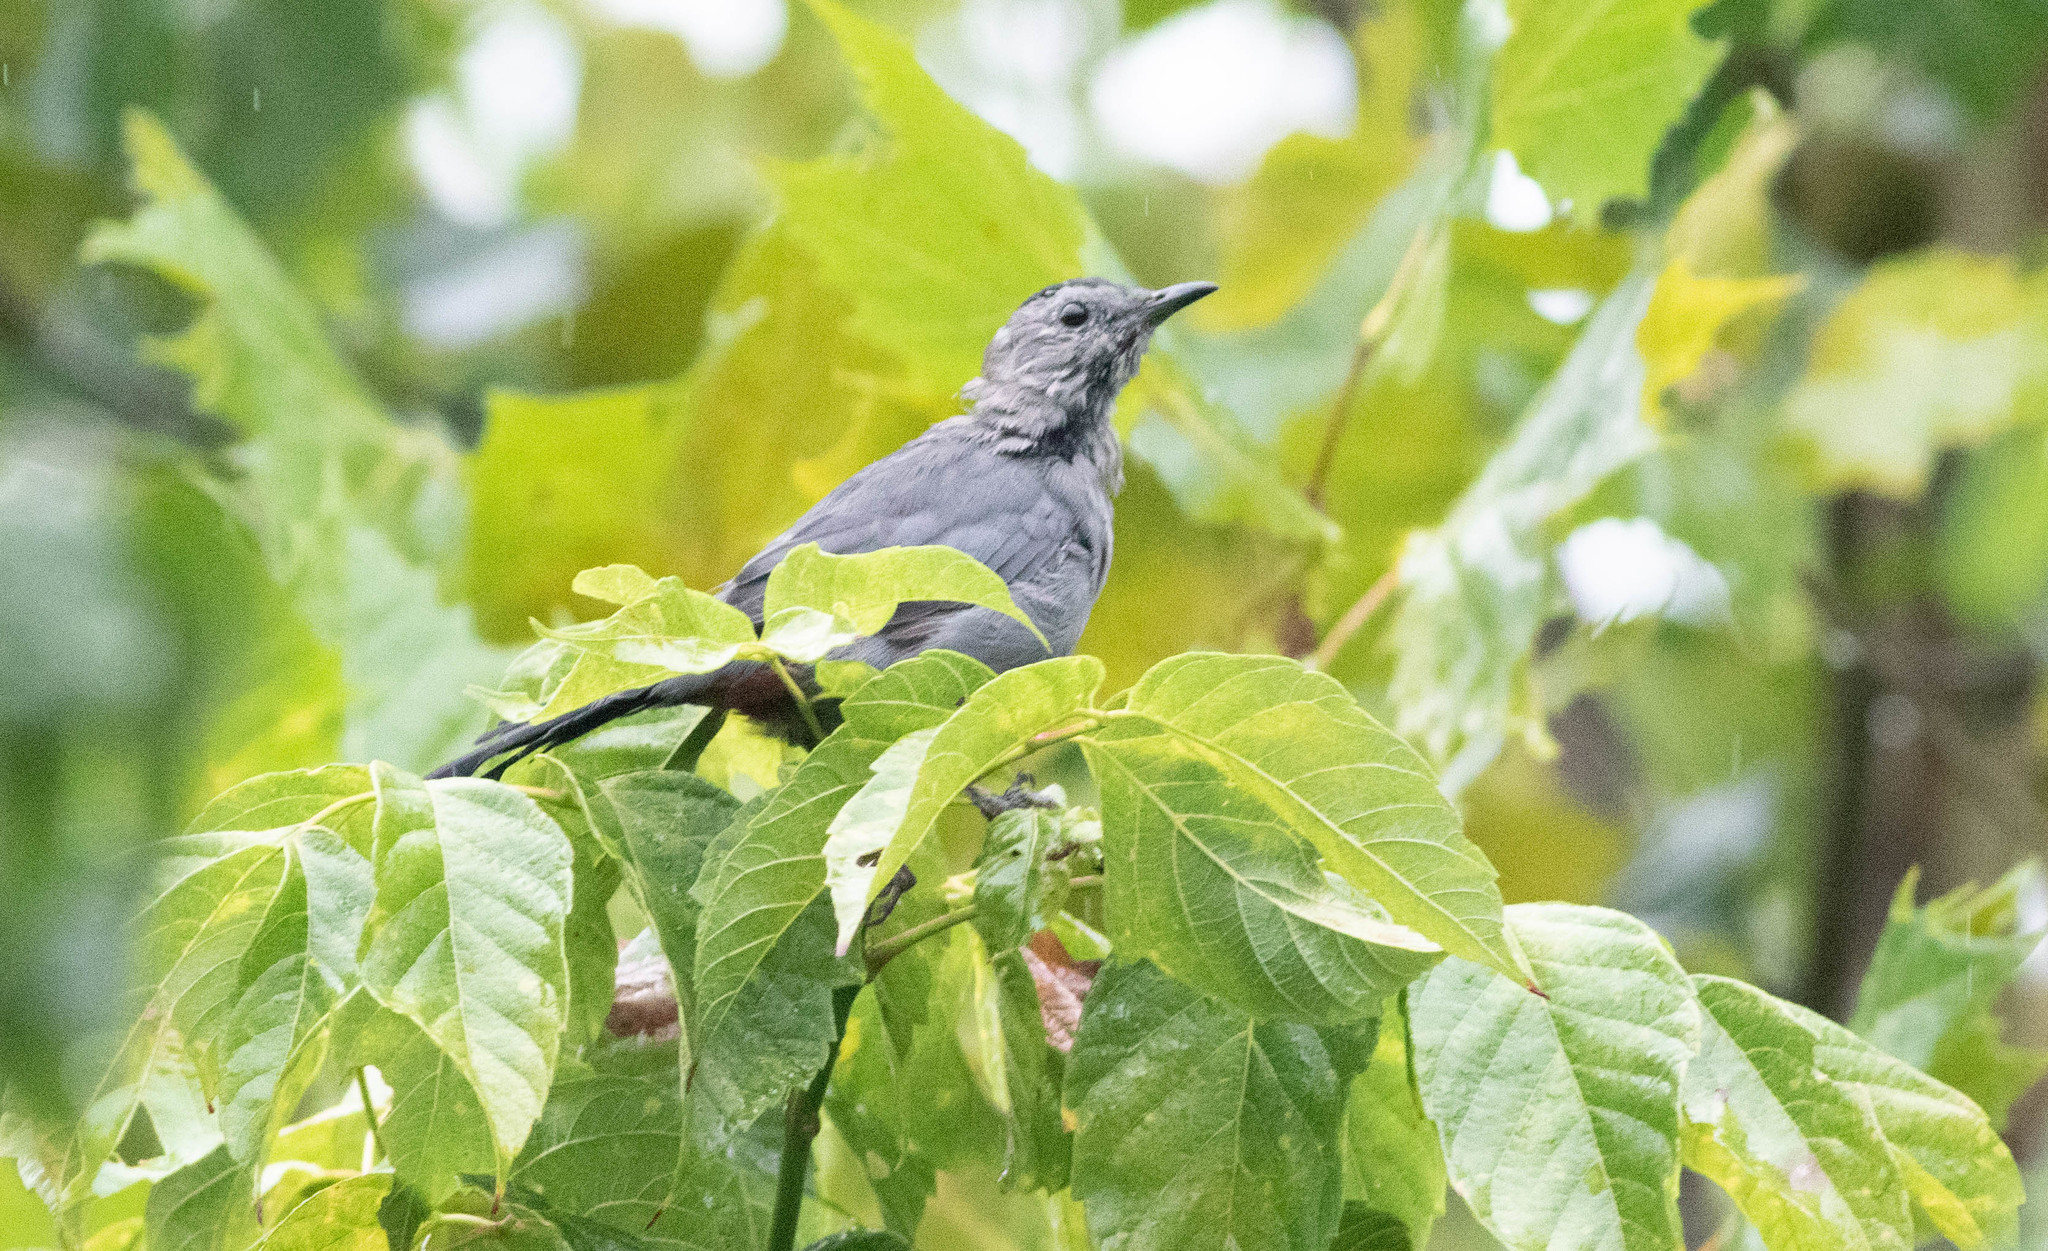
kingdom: Animalia
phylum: Chordata
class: Aves
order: Passeriformes
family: Mimidae
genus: Dumetella
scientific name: Dumetella carolinensis
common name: Gray catbird
